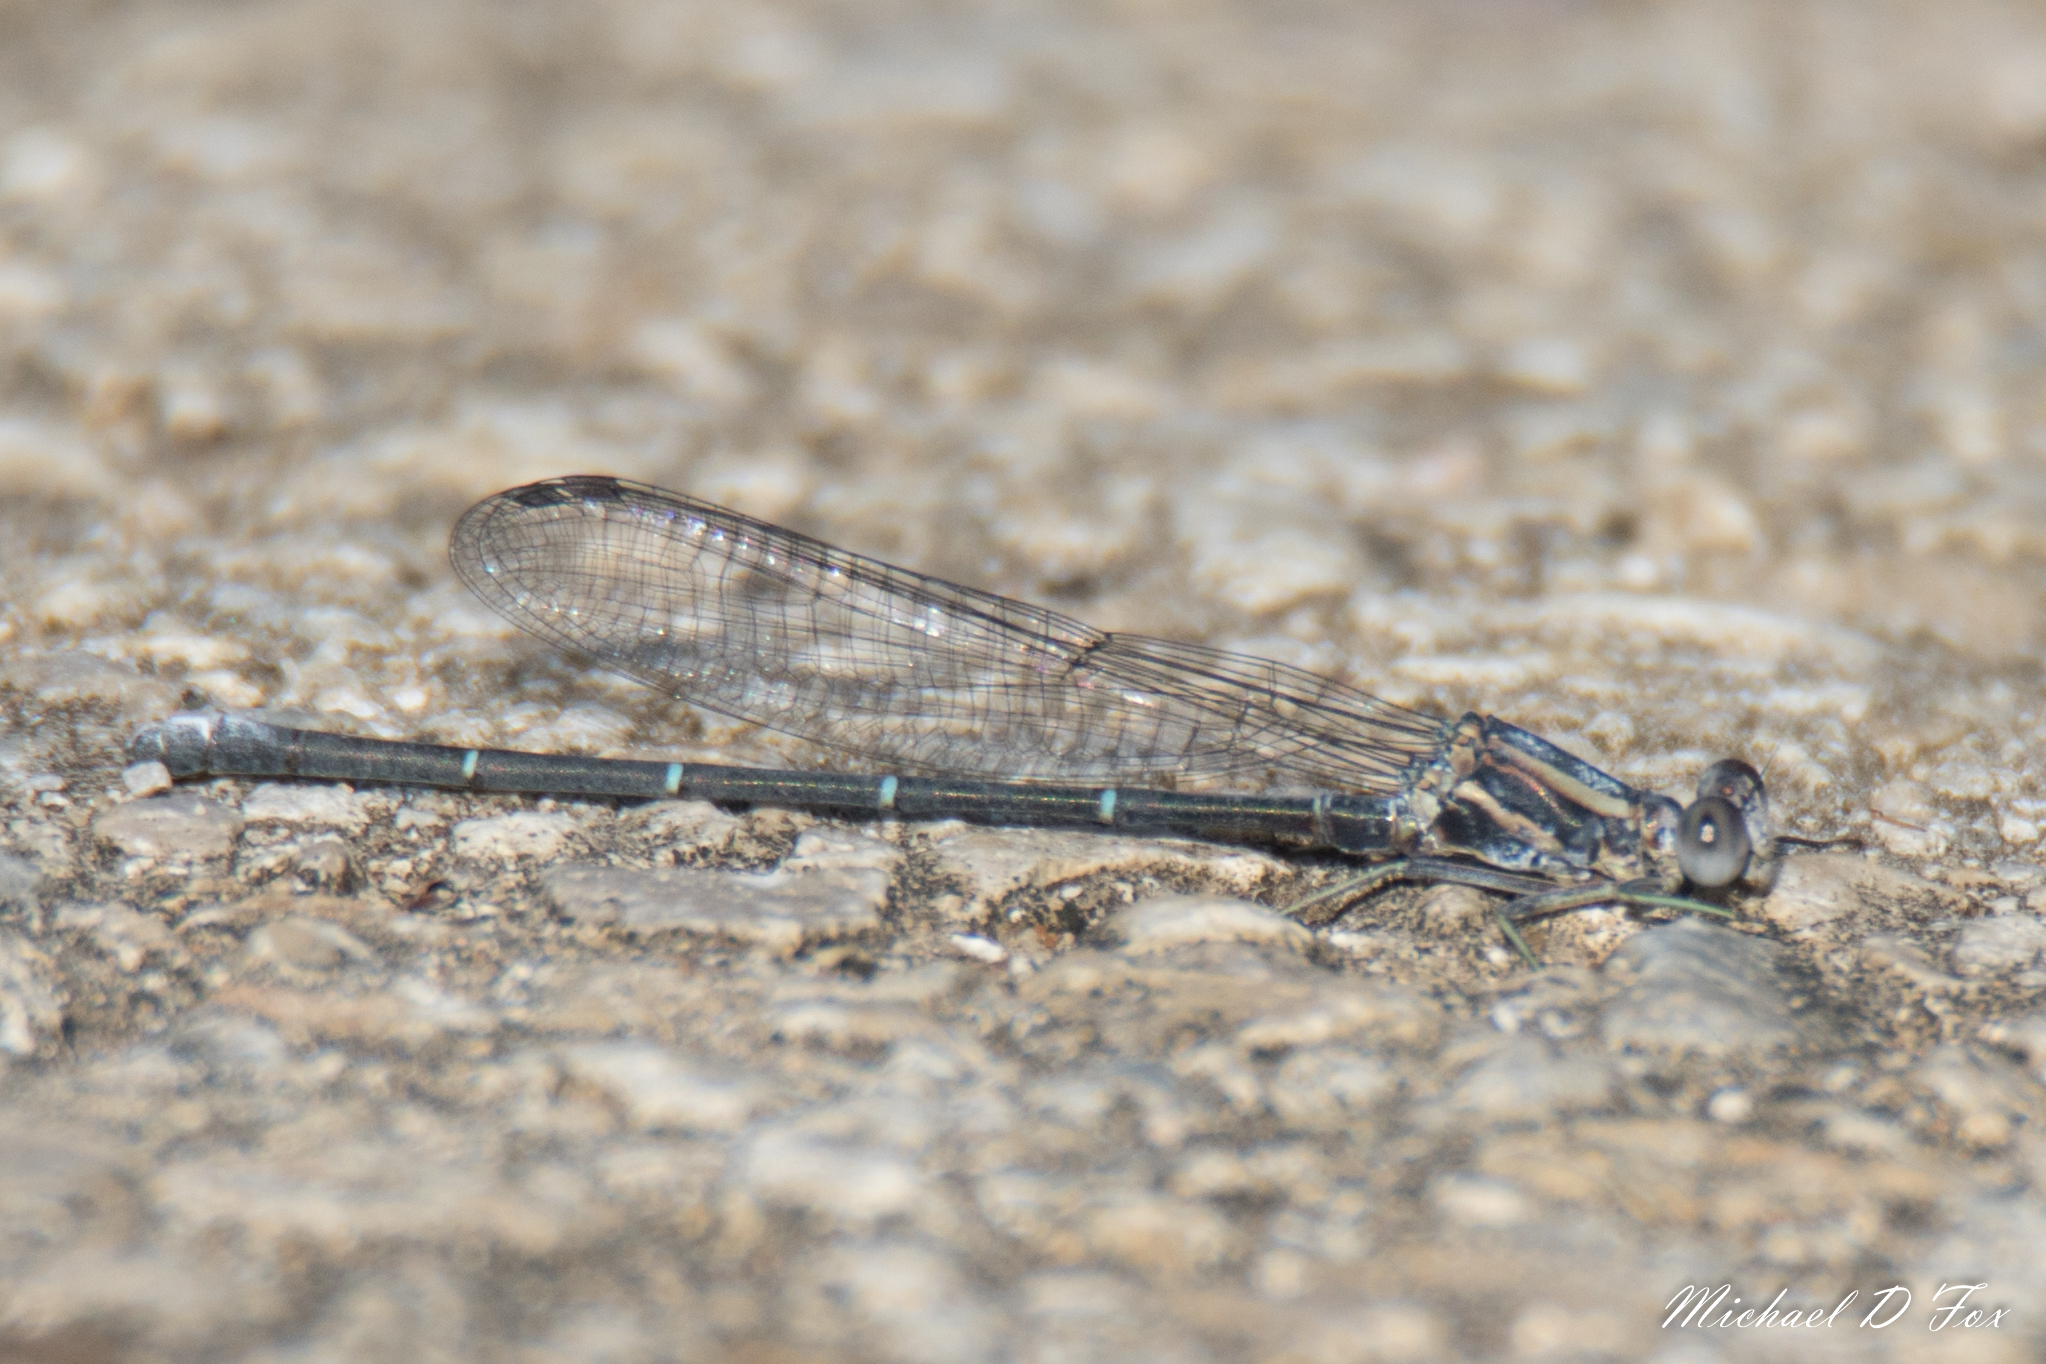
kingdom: Animalia
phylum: Arthropoda
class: Insecta
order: Odonata
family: Coenagrionidae
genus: Argia
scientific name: Argia moesta
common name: Powdered dancer
